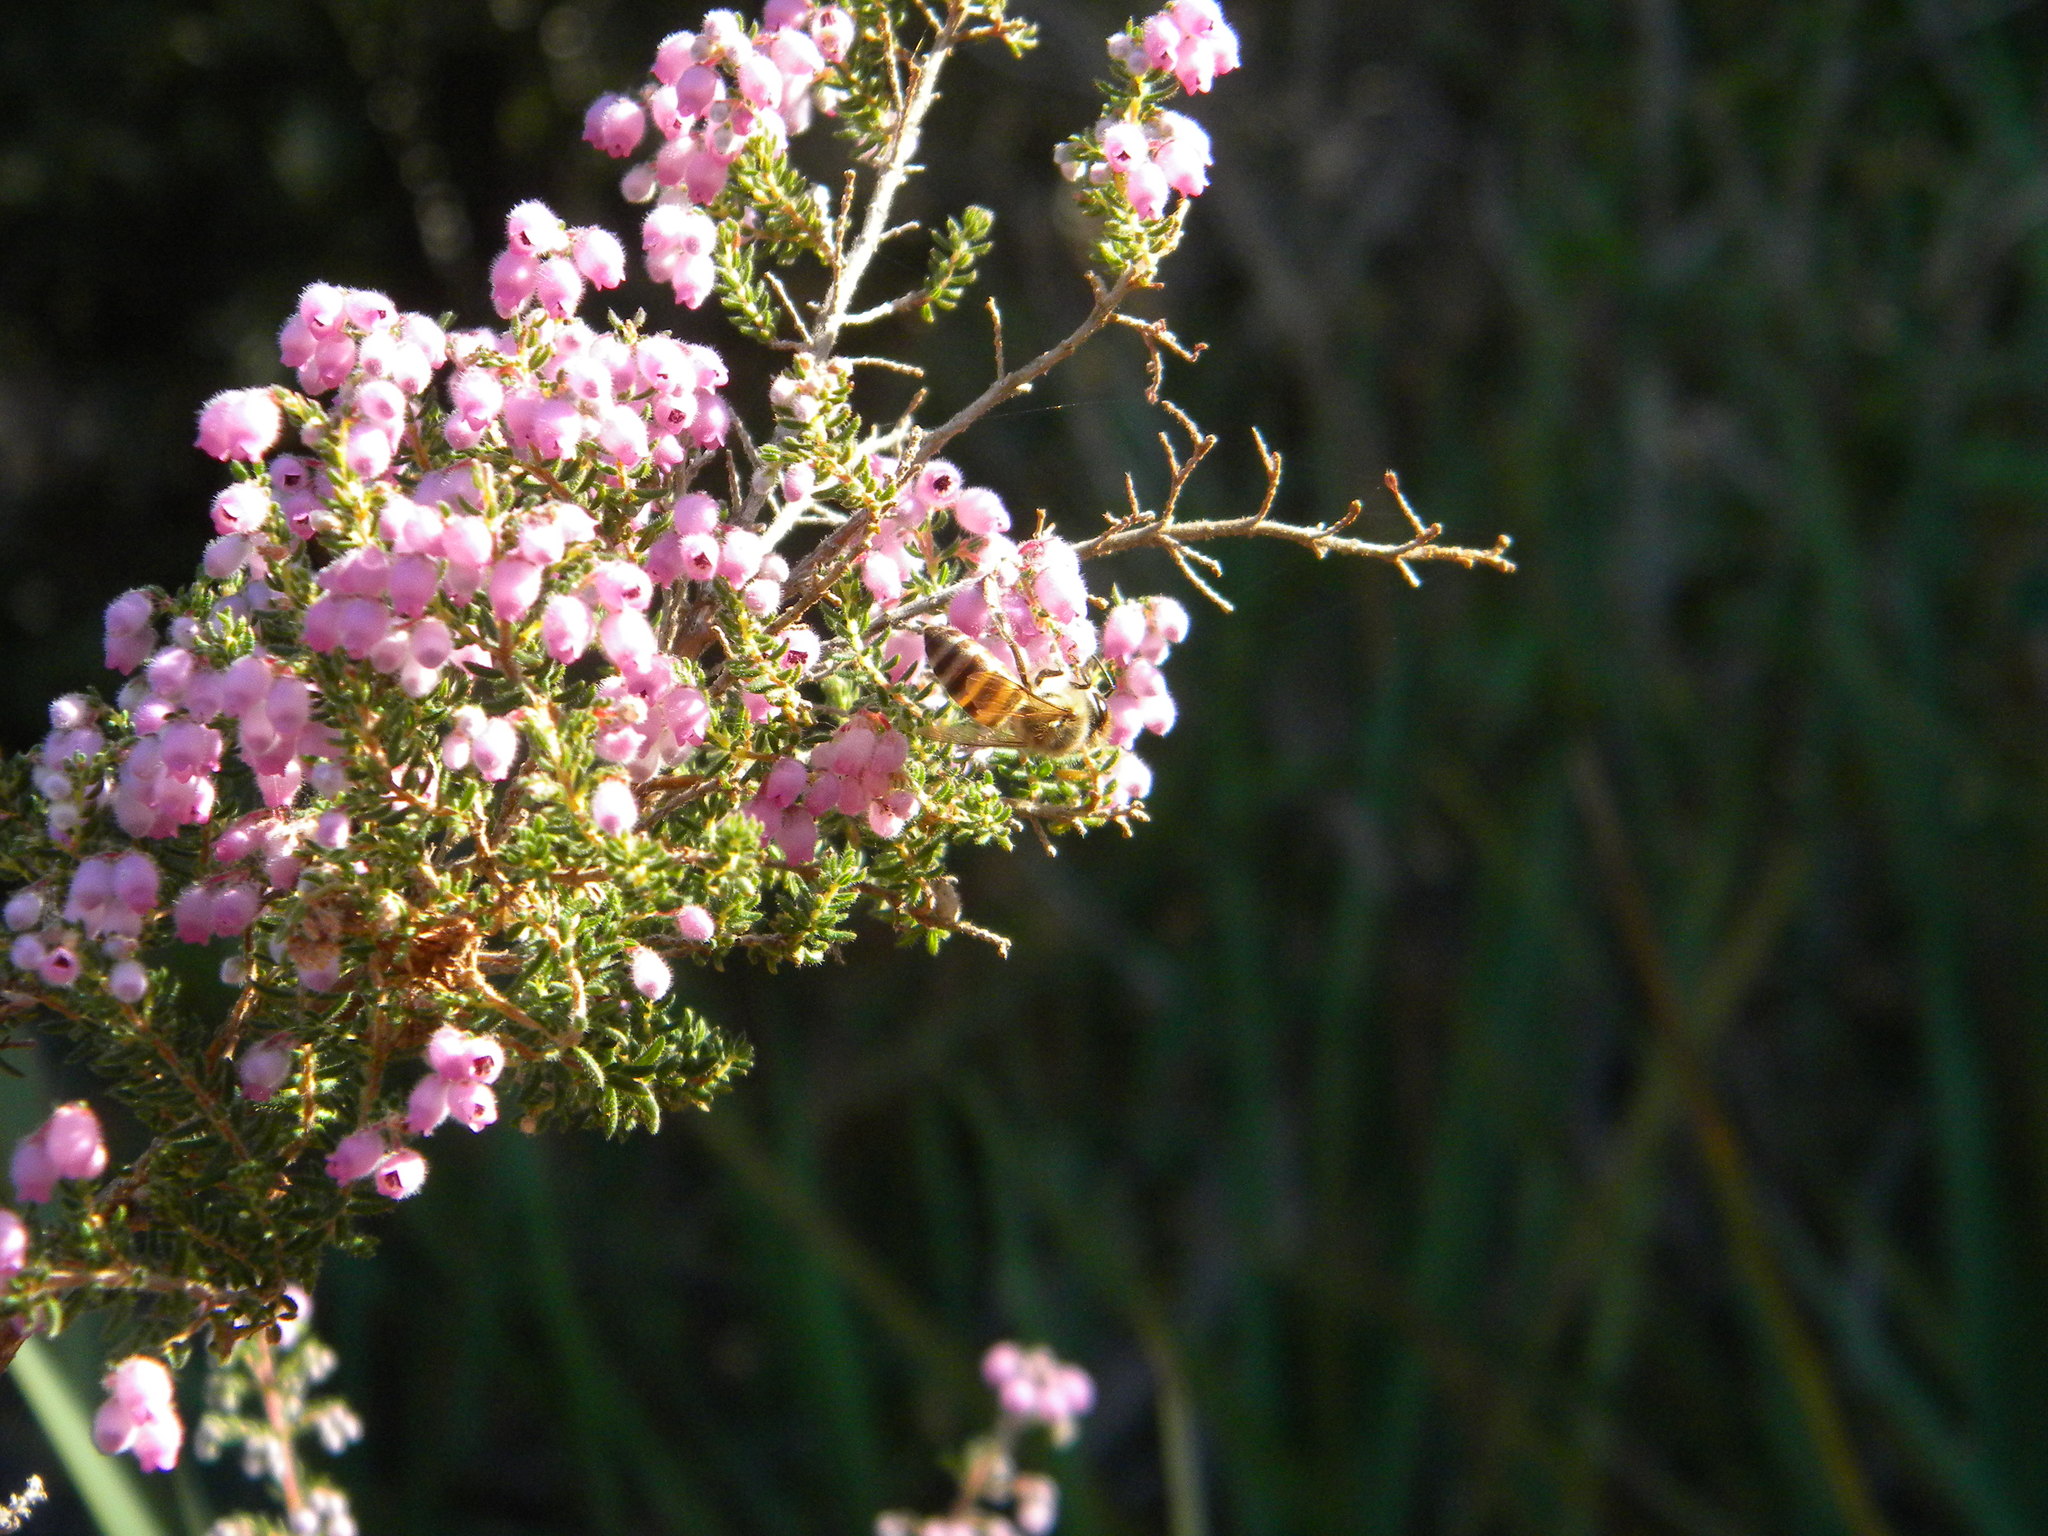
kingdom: Animalia
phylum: Arthropoda
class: Insecta
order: Hymenoptera
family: Apidae
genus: Apis
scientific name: Apis mellifera
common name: Honey bee
